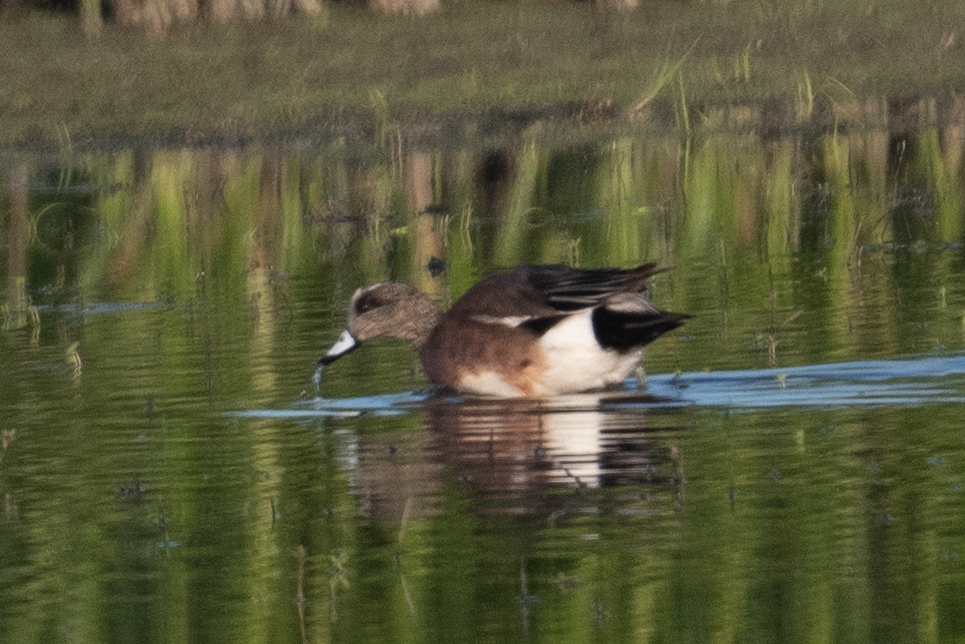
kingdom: Animalia
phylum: Chordata
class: Aves
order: Anseriformes
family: Anatidae
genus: Mareca
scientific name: Mareca americana
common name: American wigeon
